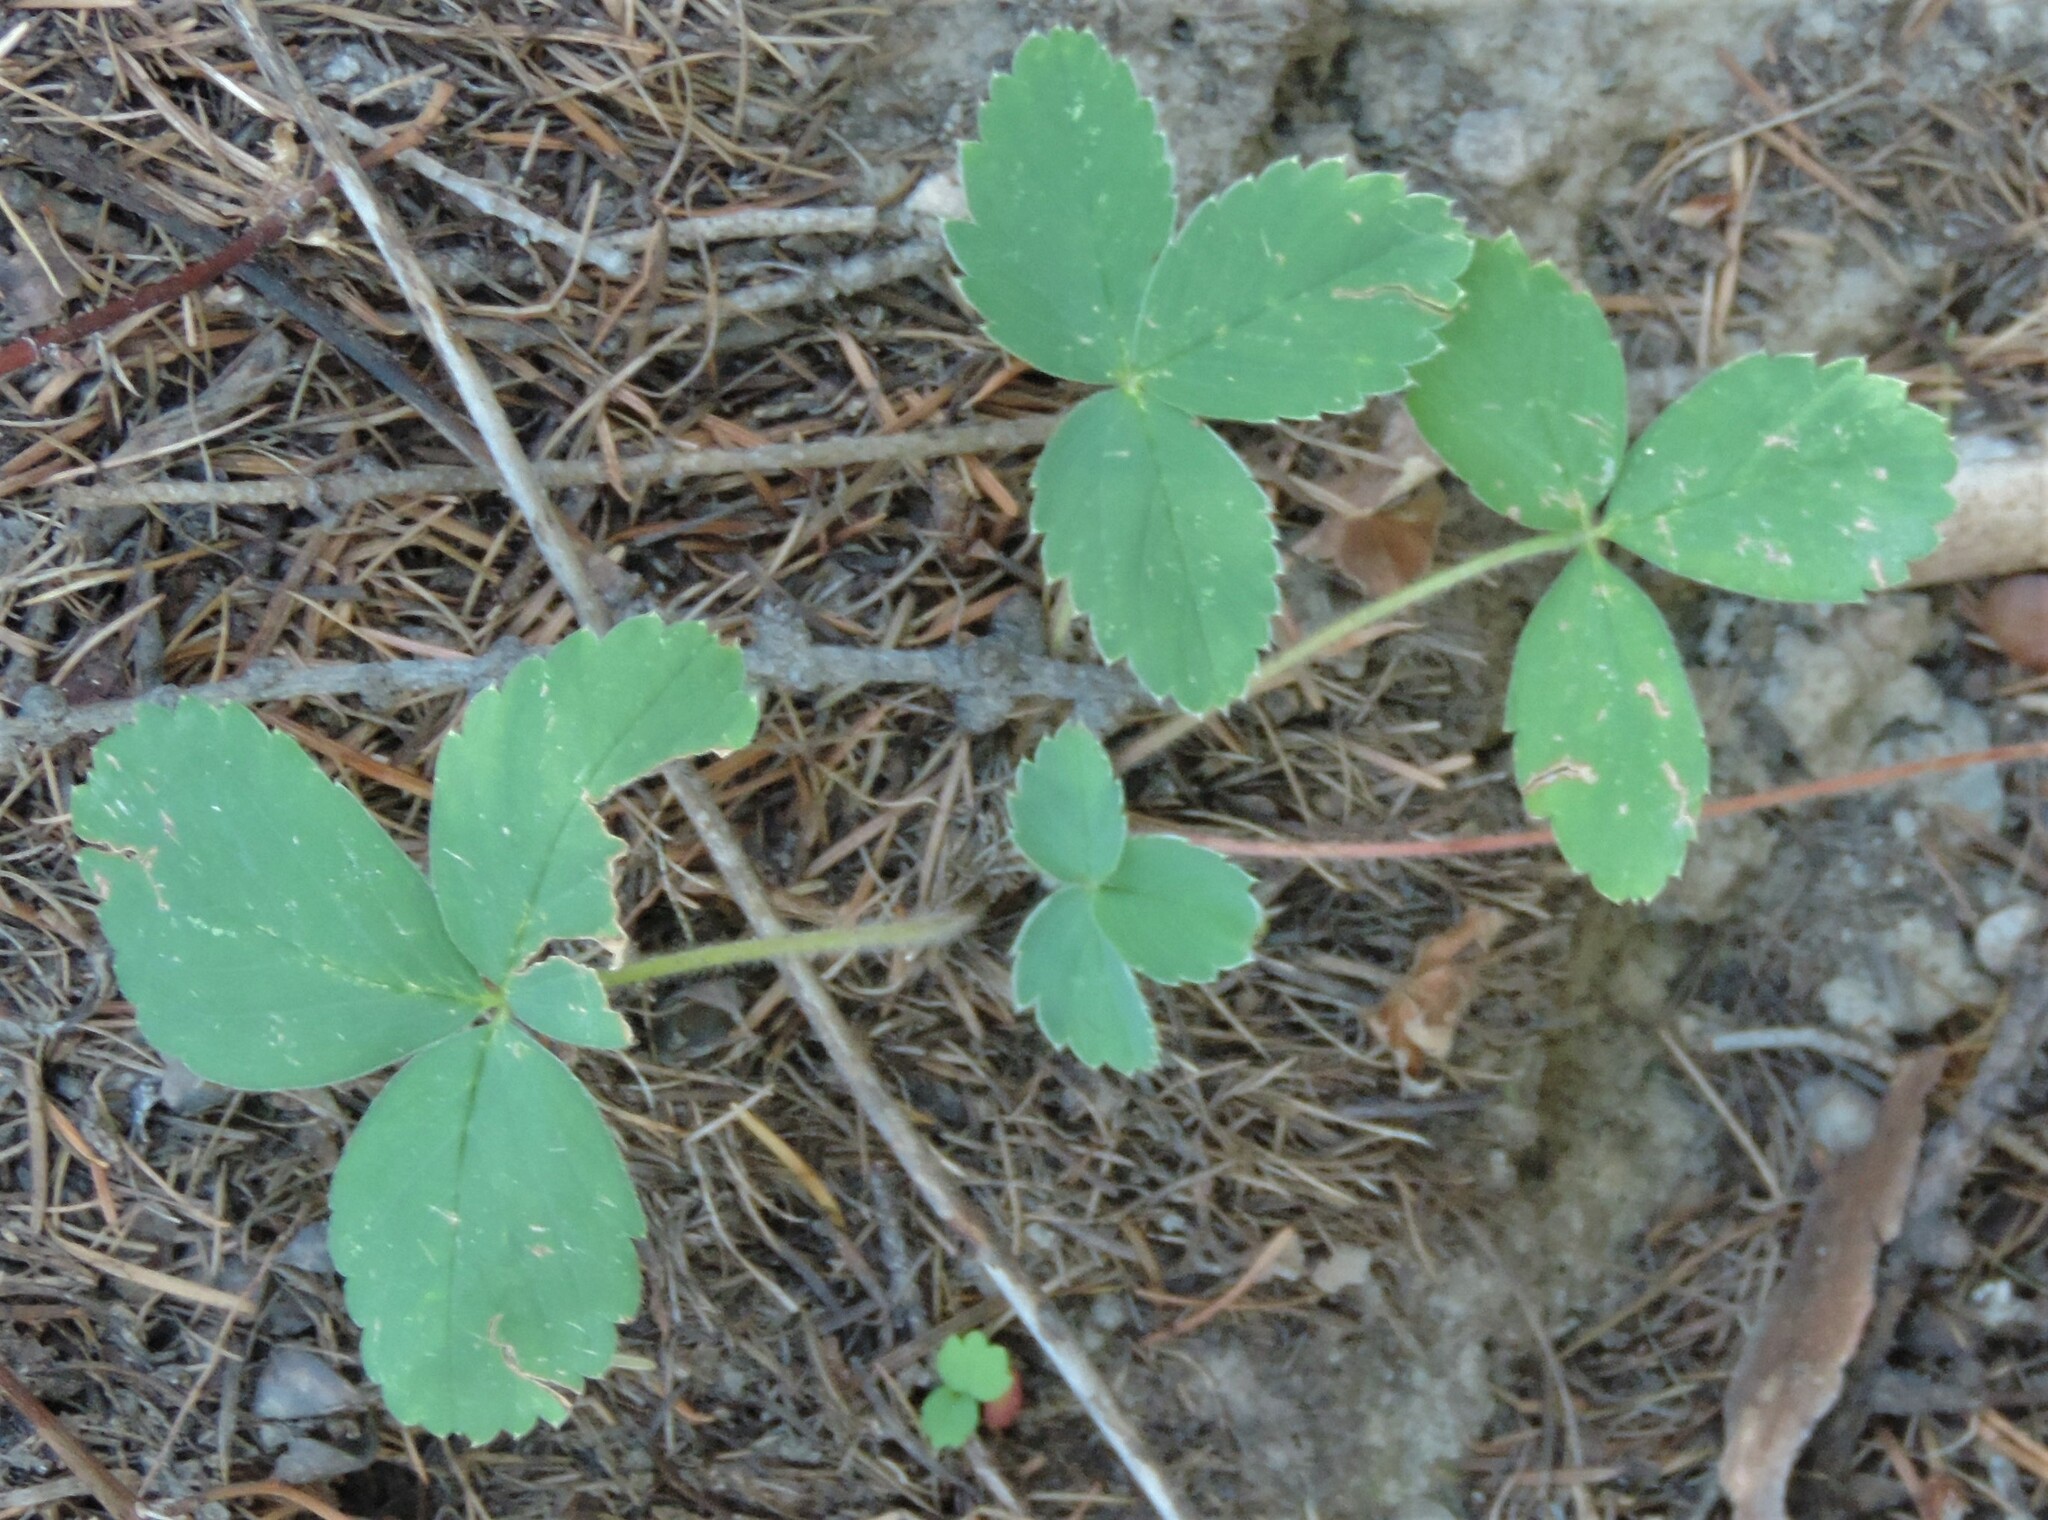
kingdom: Plantae
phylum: Tracheophyta
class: Magnoliopsida
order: Rosales
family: Rosaceae
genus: Fragaria
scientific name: Fragaria virginiana
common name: Thickleaved wild strawberry
